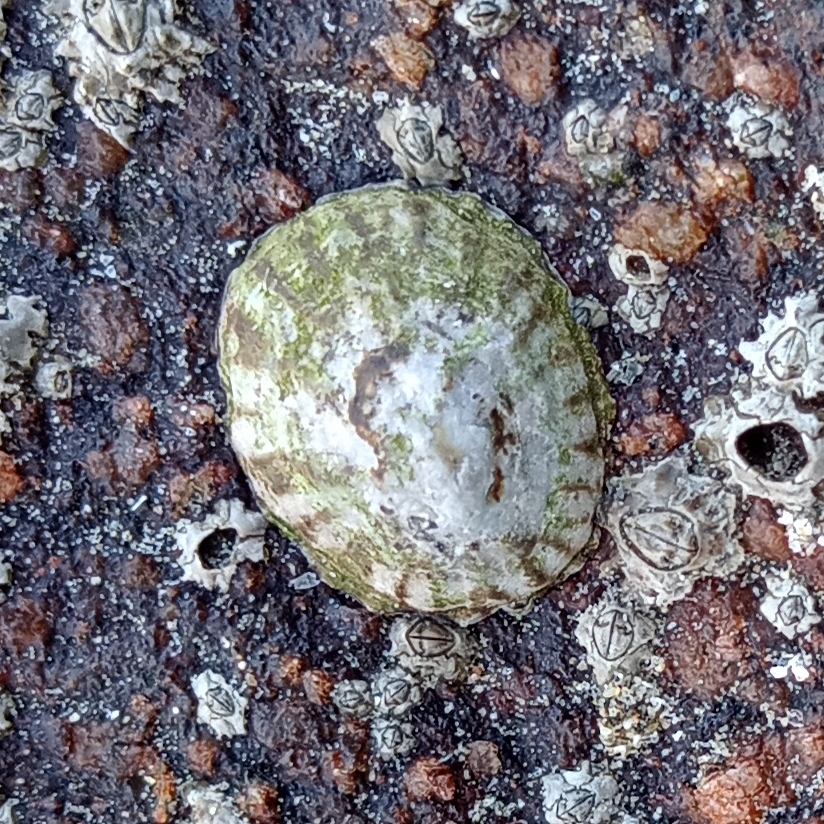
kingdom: Animalia
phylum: Mollusca
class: Gastropoda
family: Lottiidae
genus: Lottia
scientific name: Lottia subrugosa
